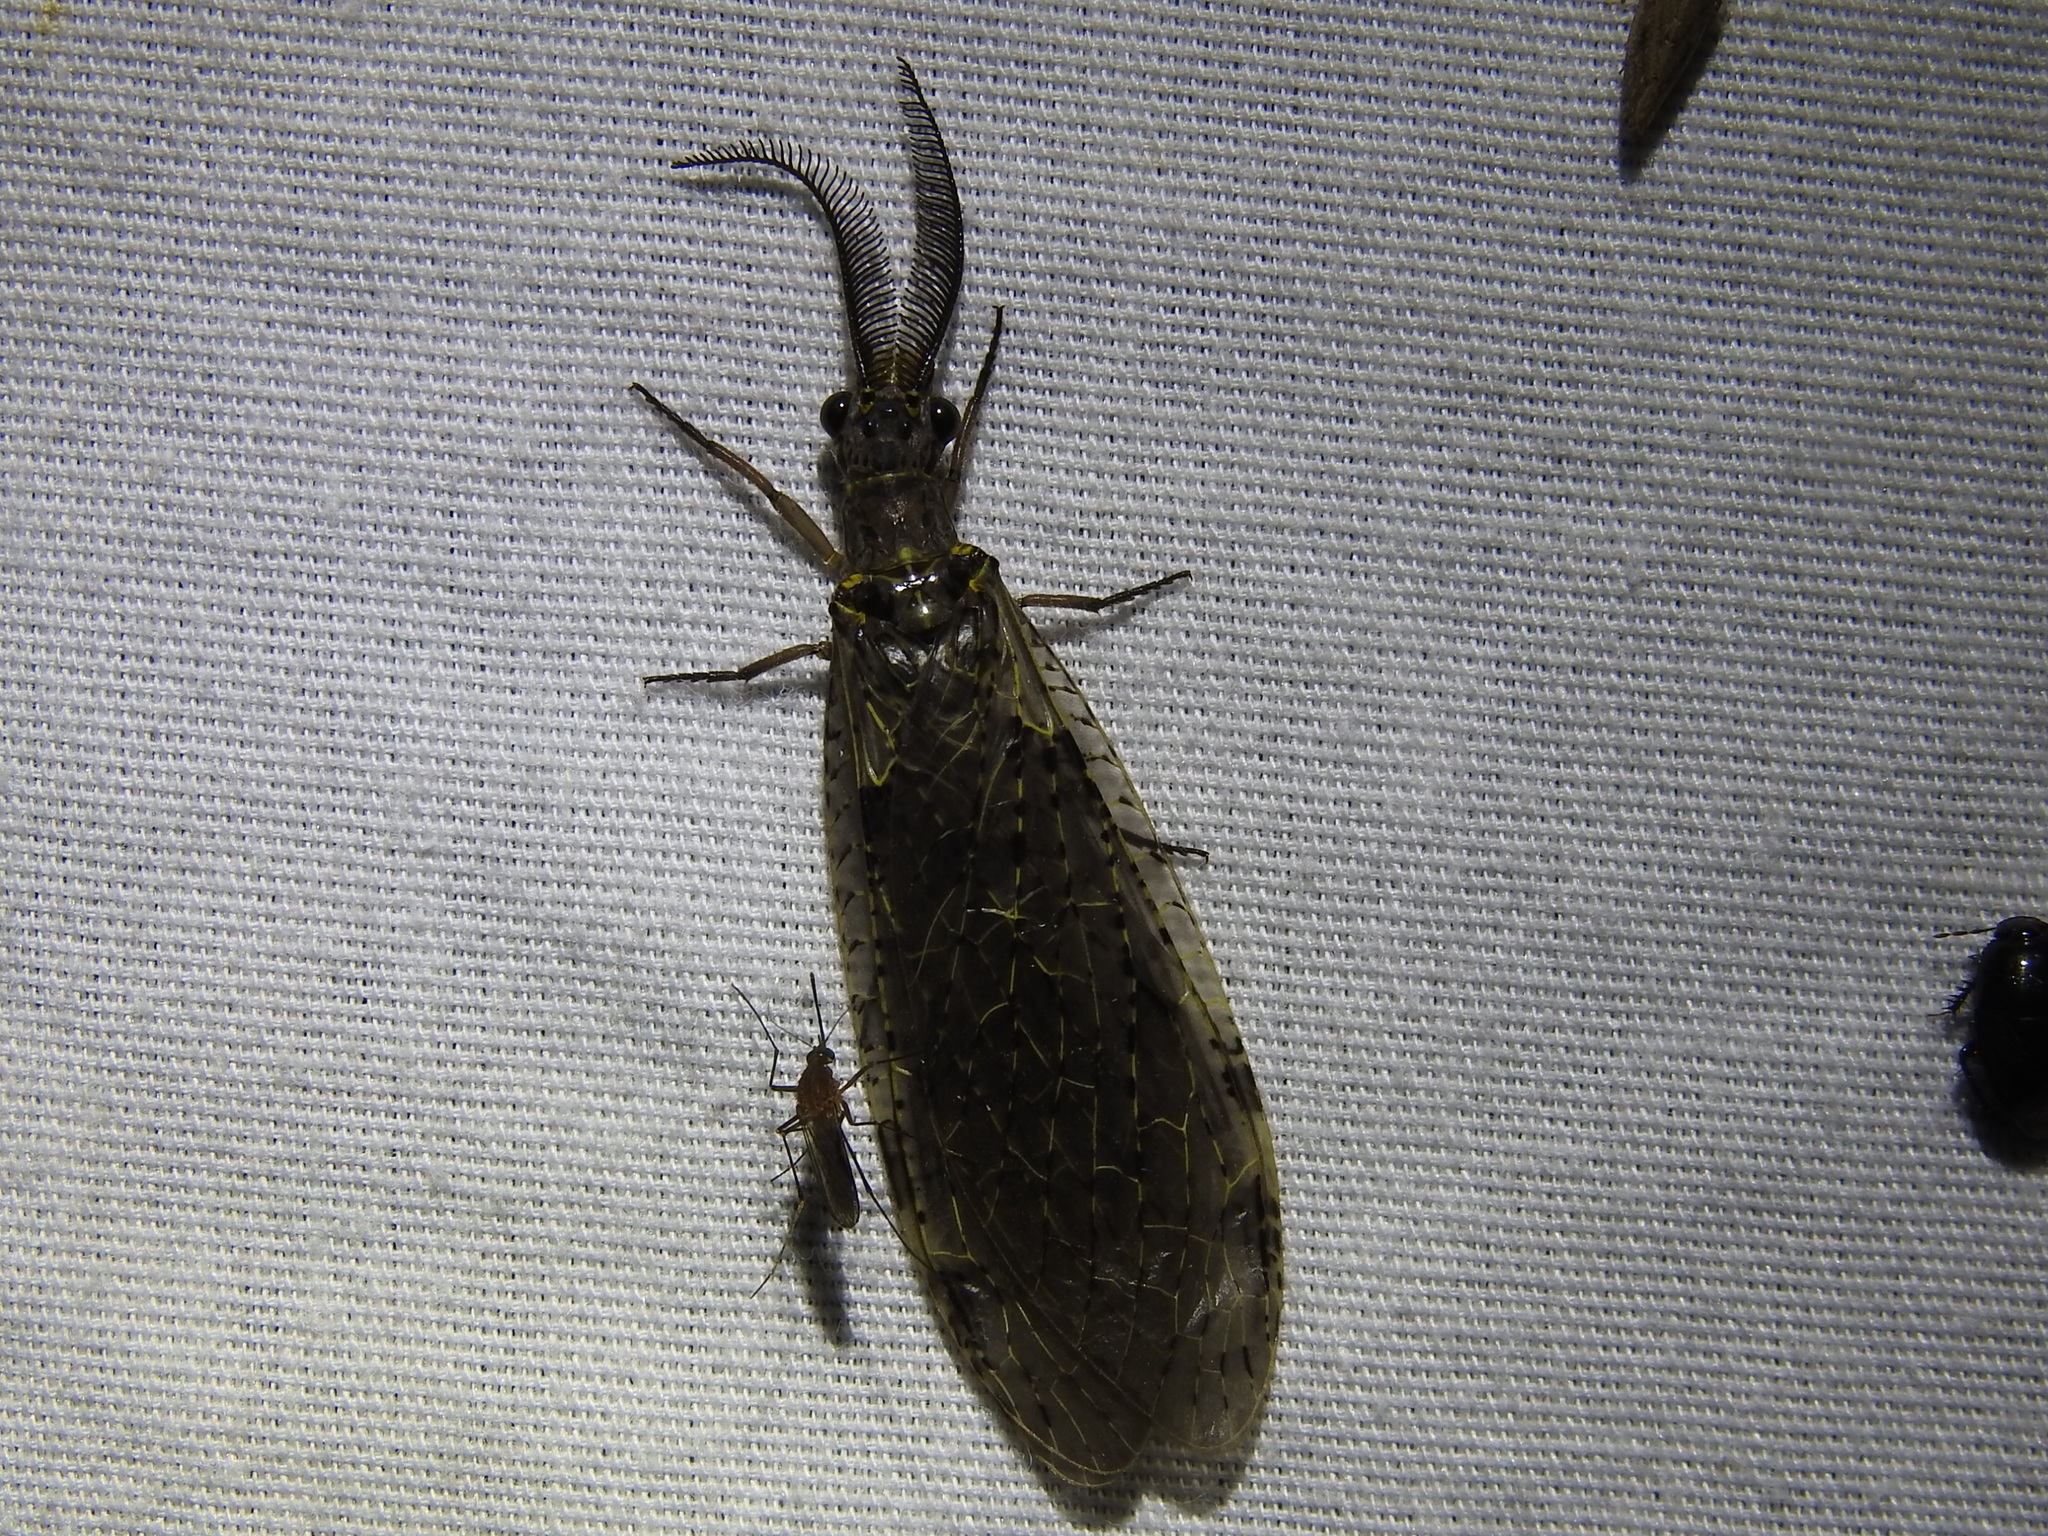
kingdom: Animalia
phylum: Arthropoda
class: Insecta
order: Megaloptera
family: Corydalidae
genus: Chauliodes
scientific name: Chauliodes rastricornis
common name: Spring fishfly
